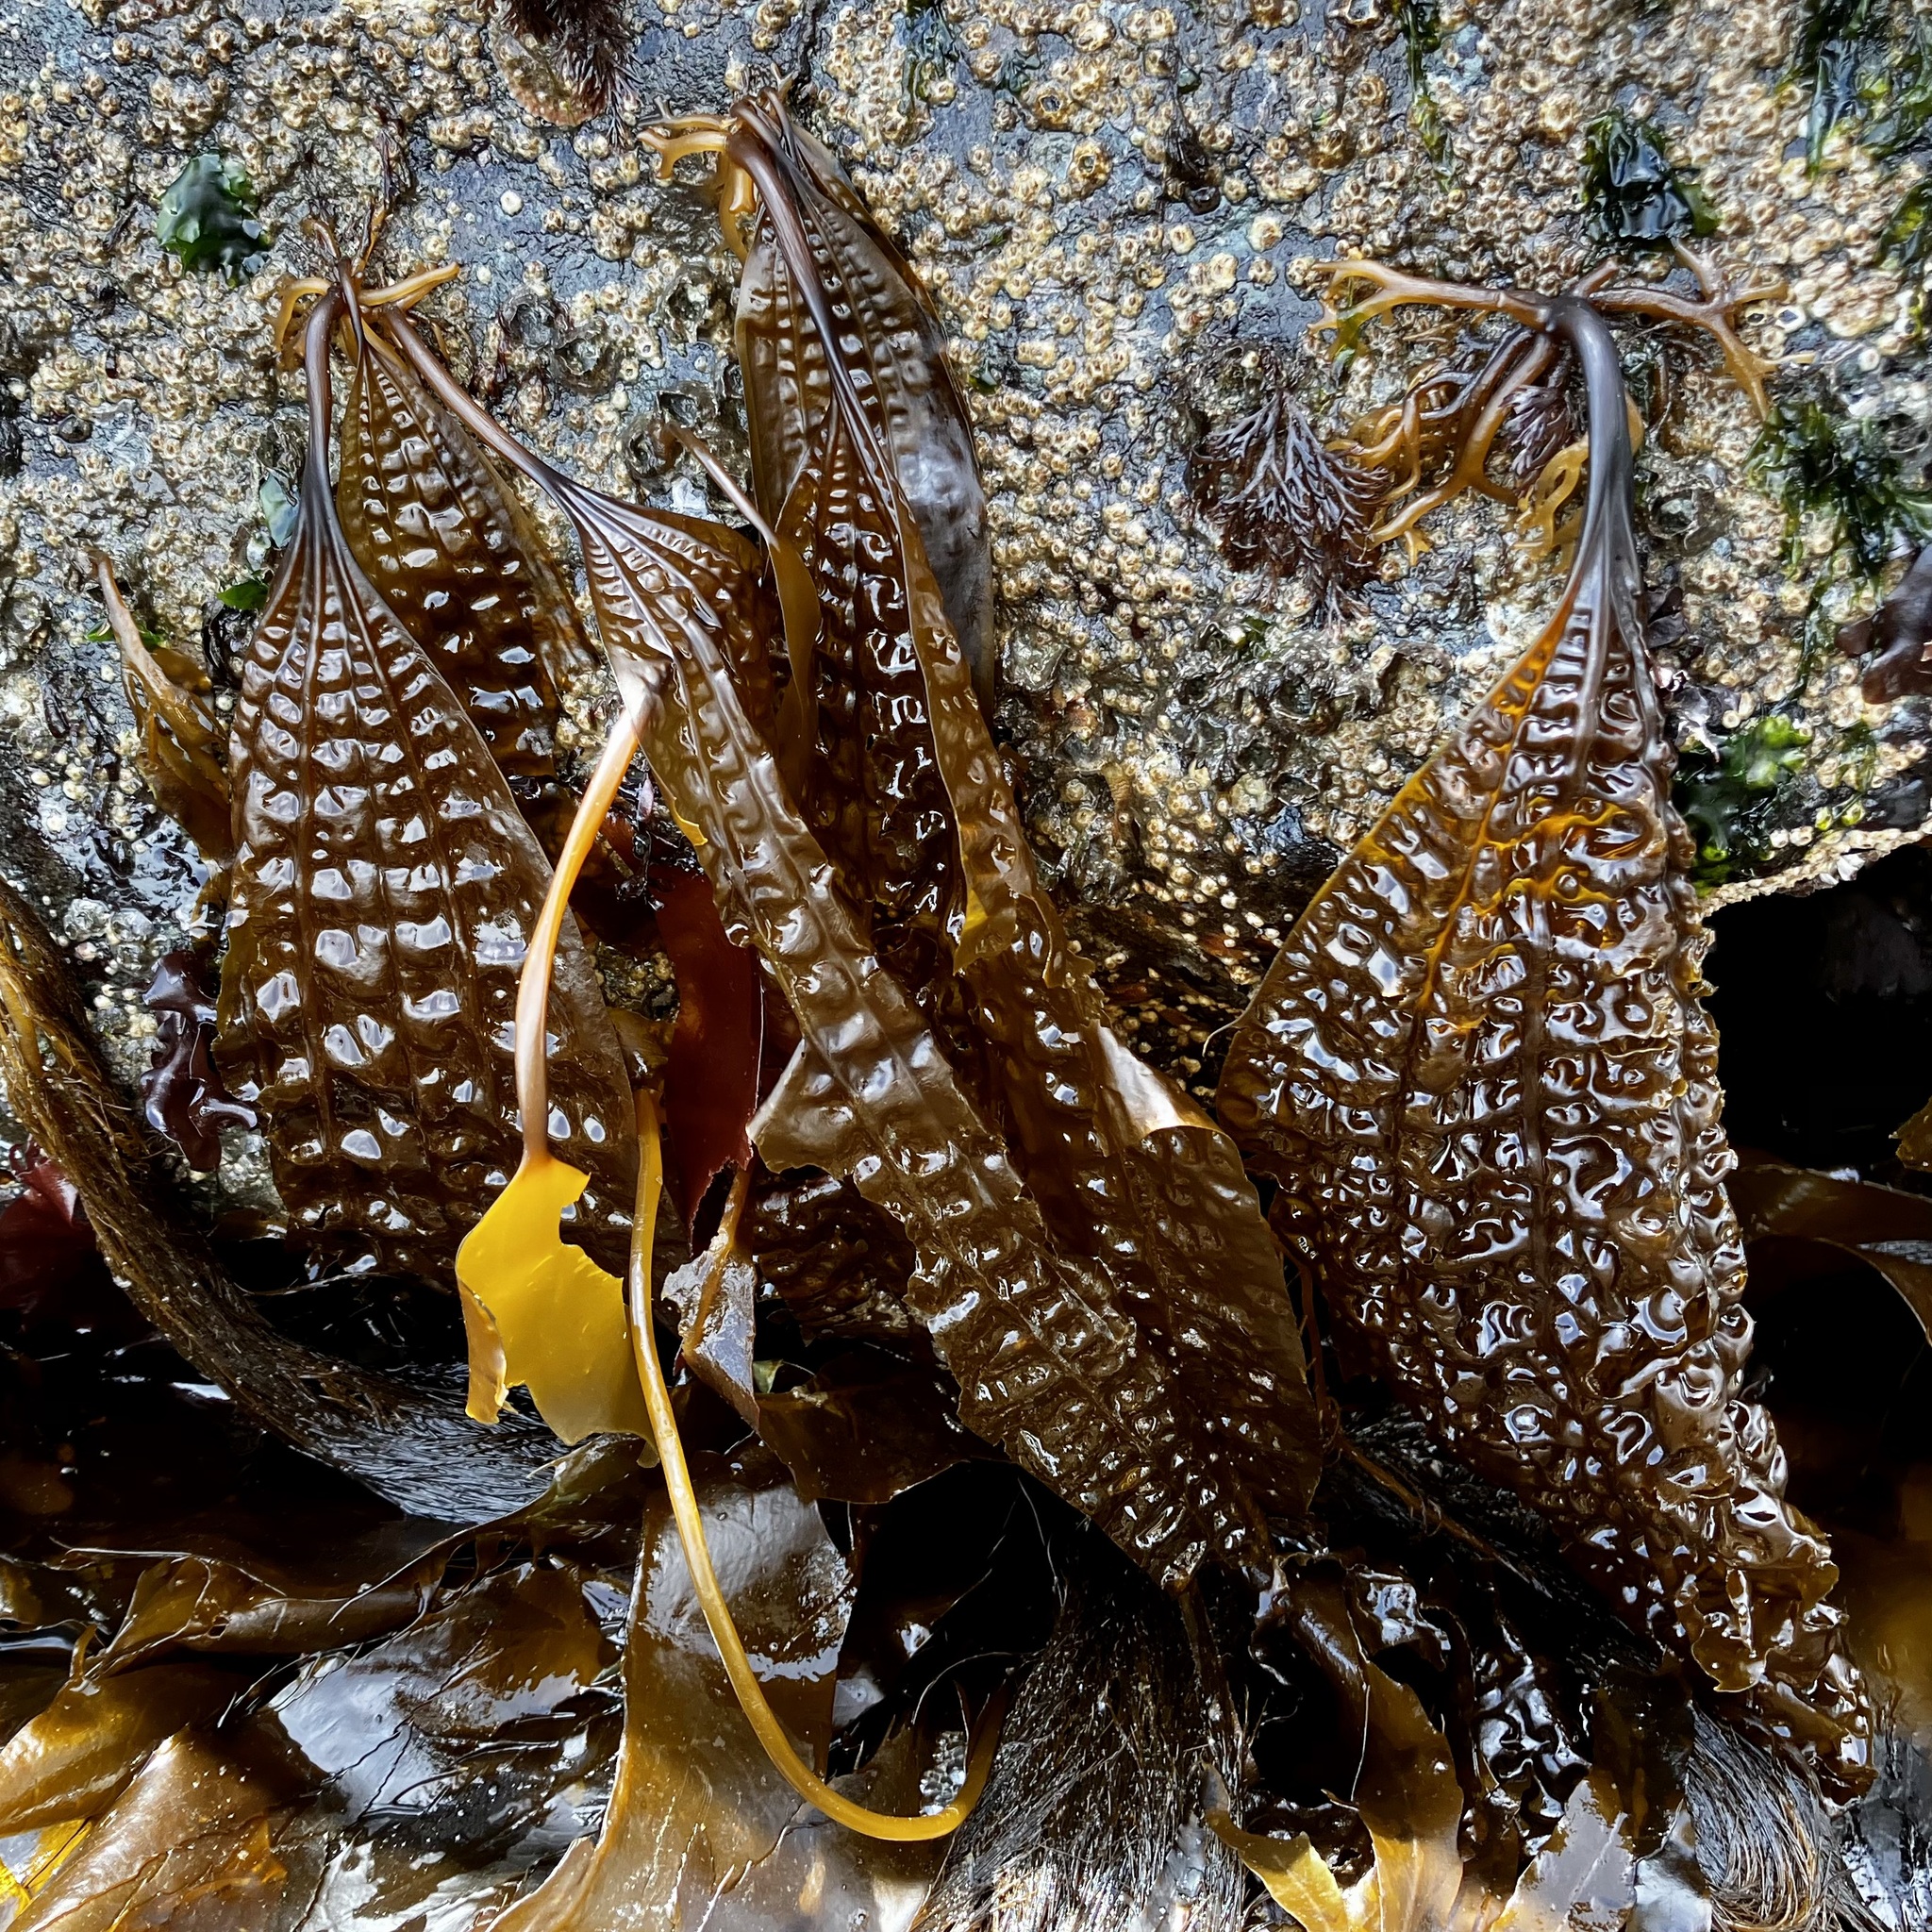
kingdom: Chromista
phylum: Ochrophyta
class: Phaeophyceae
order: Laminariales
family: Costariaceae
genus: Costaria
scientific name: Costaria costata
